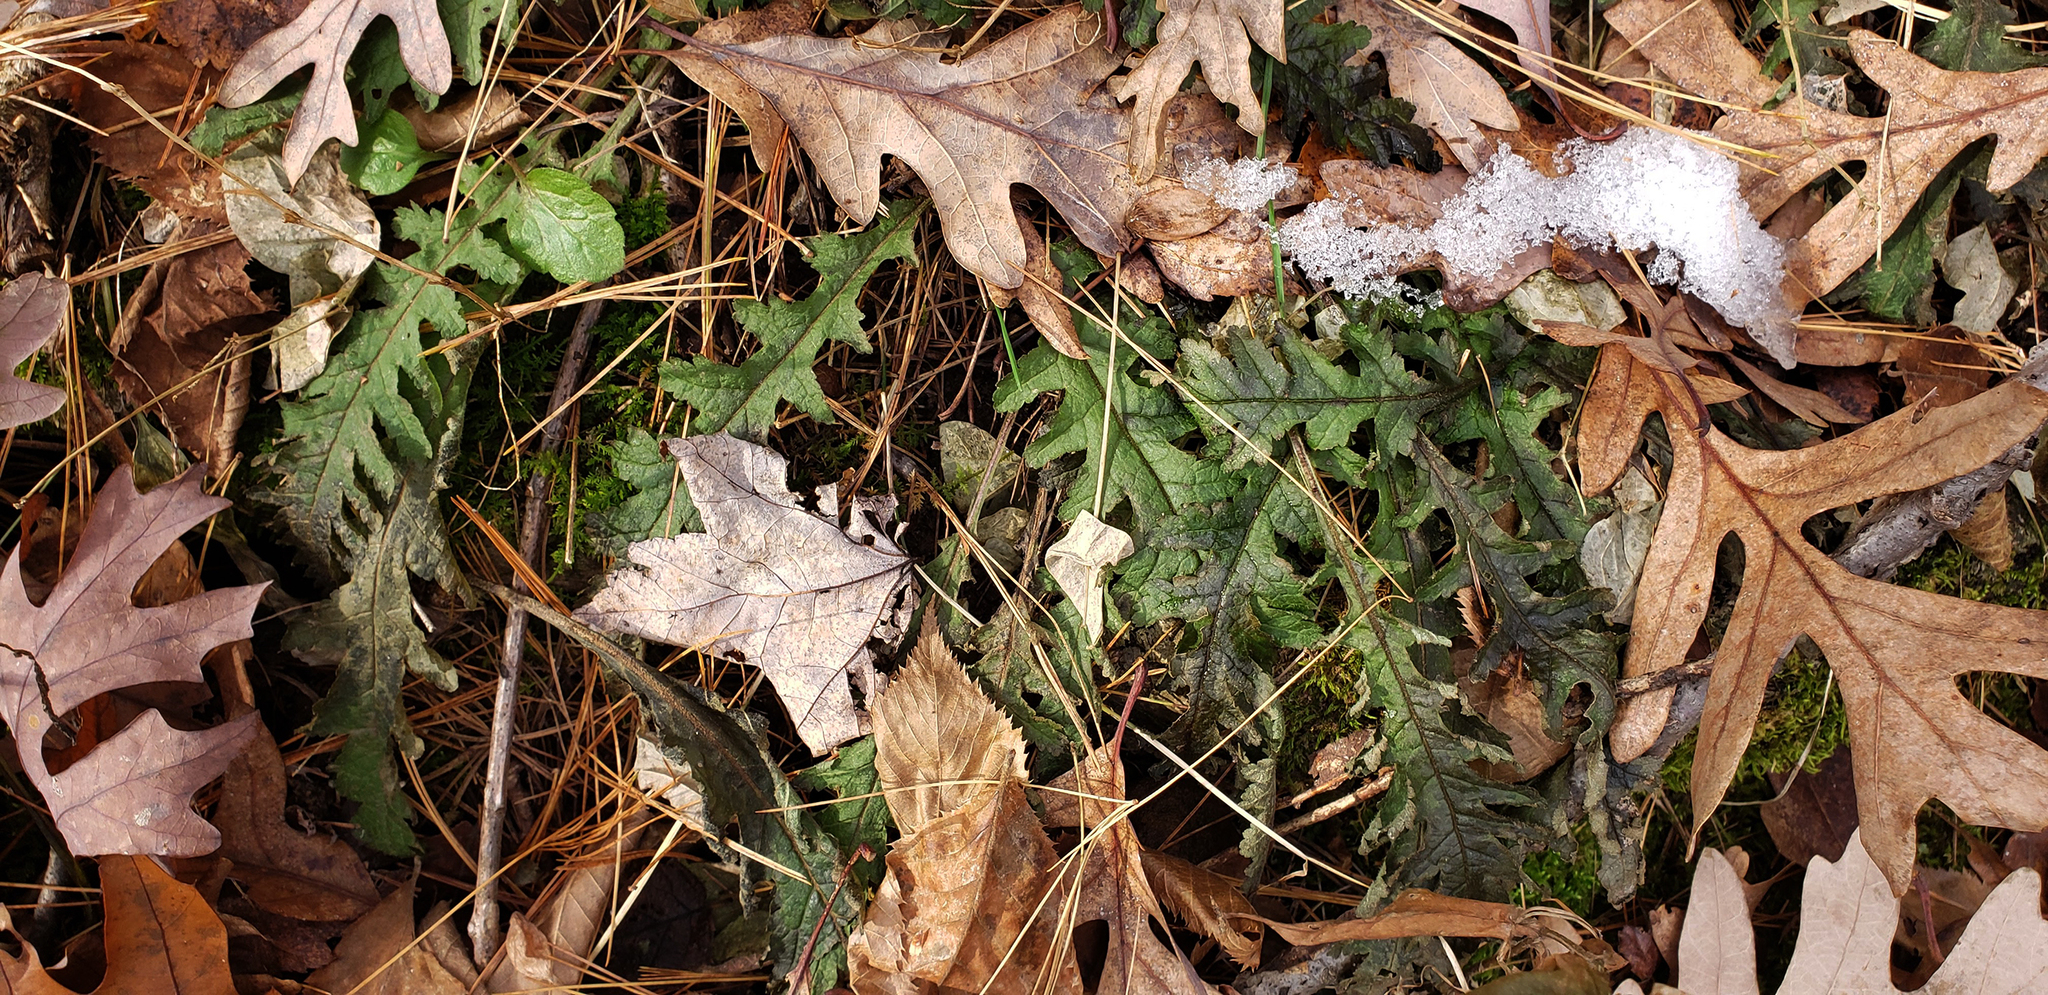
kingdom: Plantae
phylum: Tracheophyta
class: Magnoliopsida
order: Lamiales
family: Orobanchaceae
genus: Pedicularis
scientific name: Pedicularis canadensis
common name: Early lousewort
